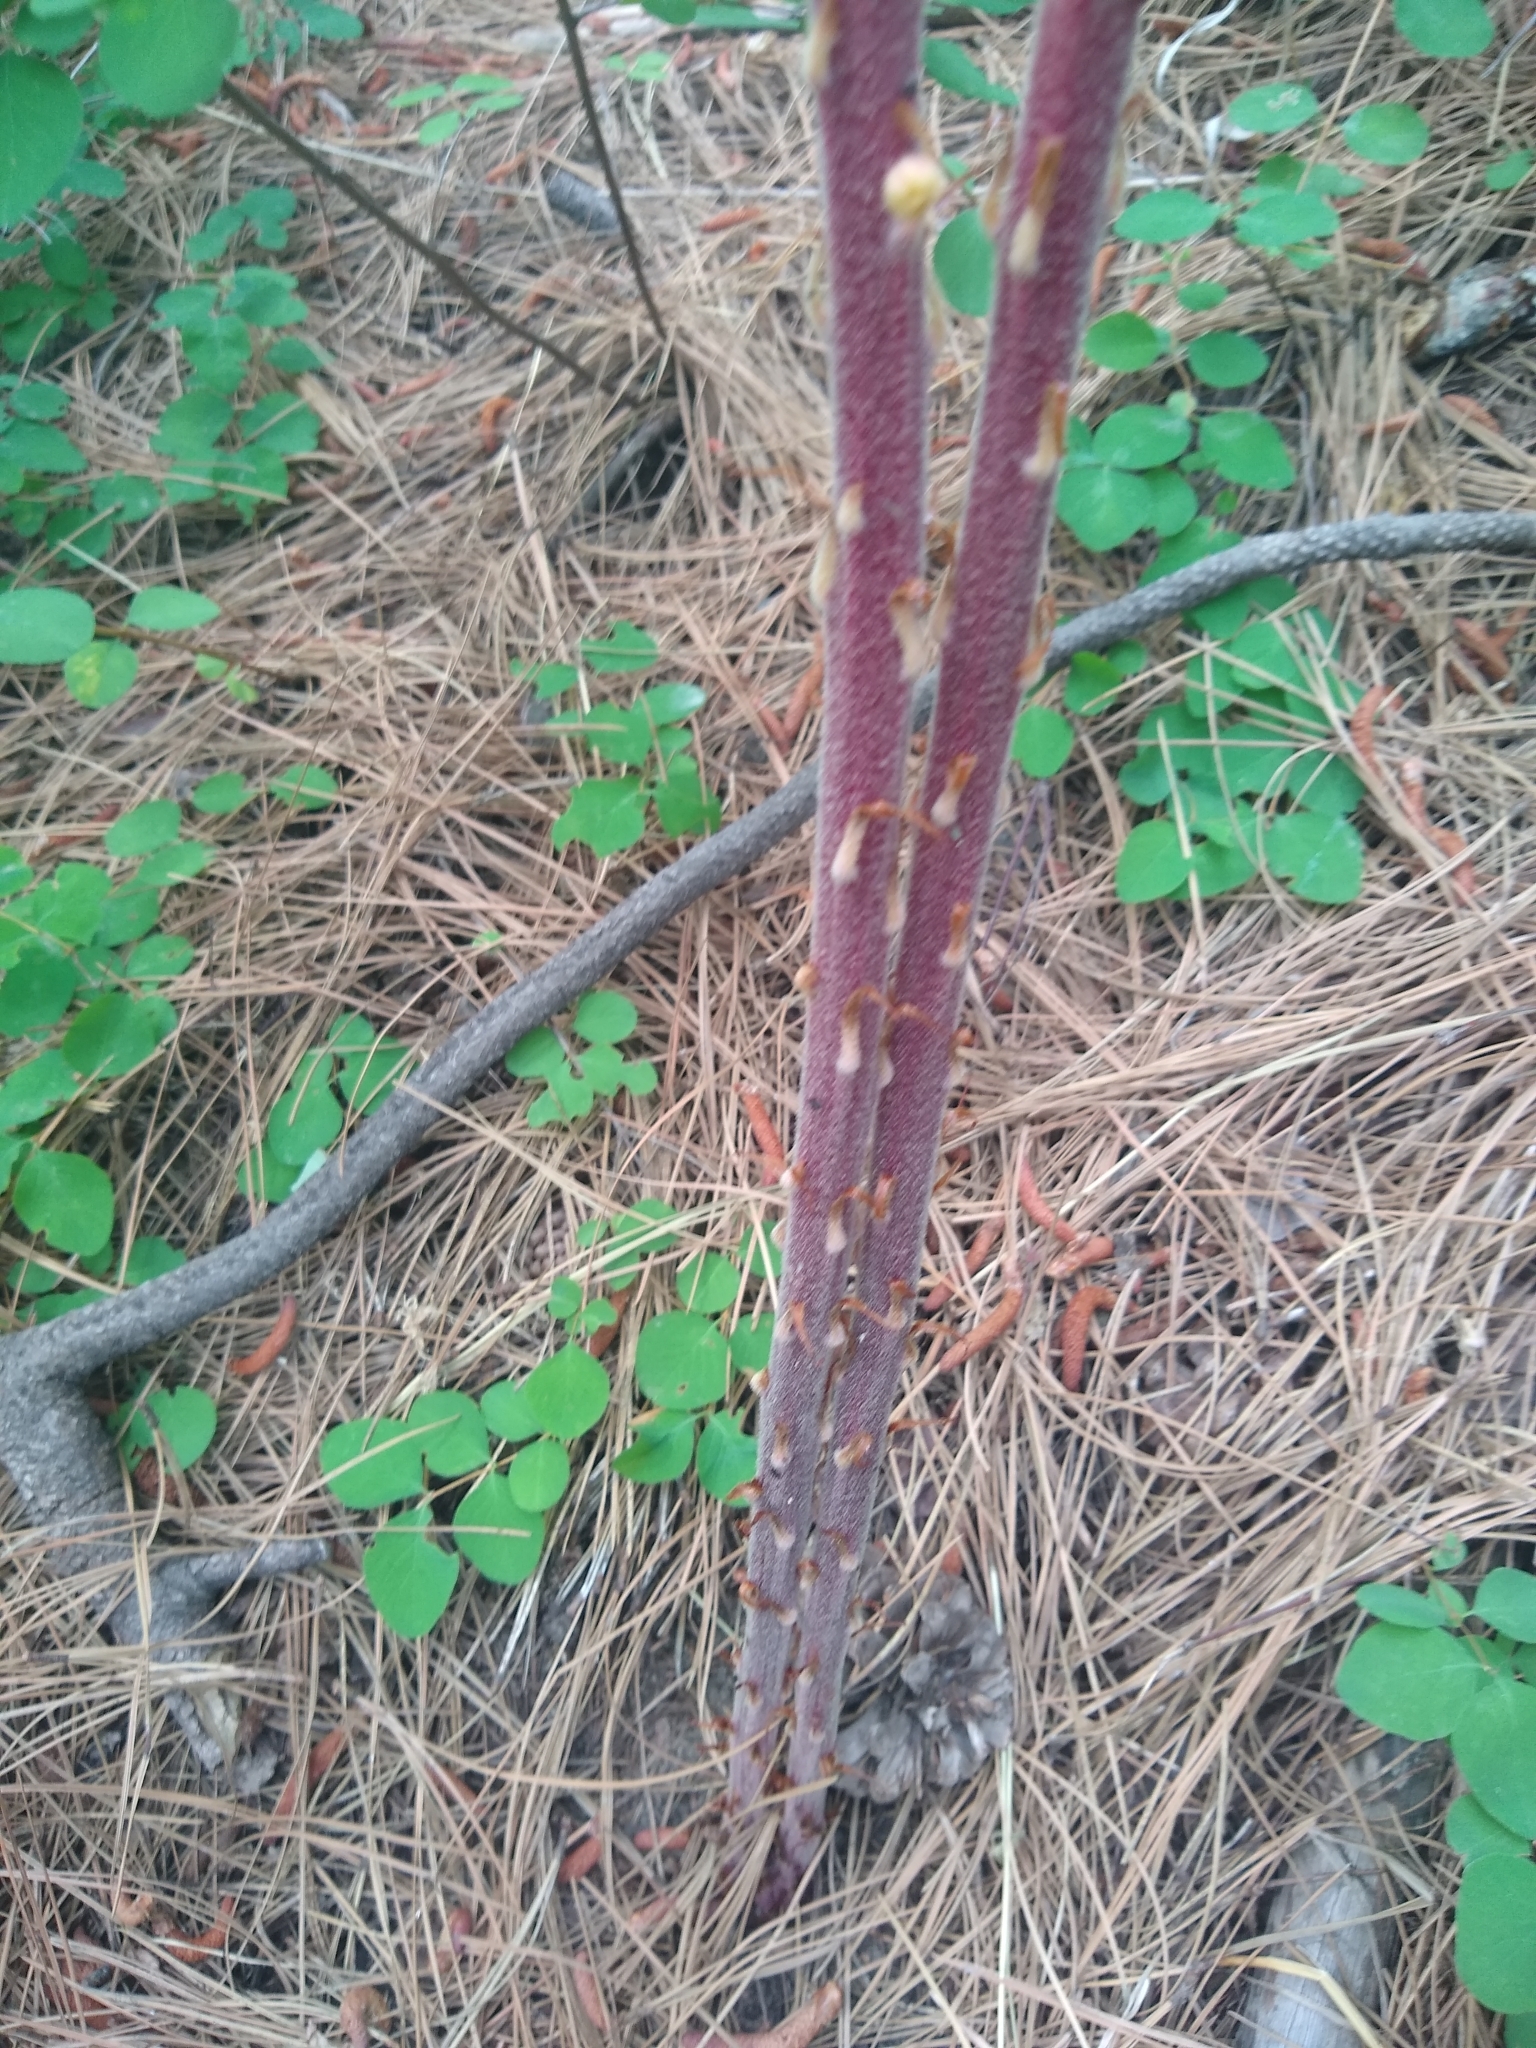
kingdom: Plantae
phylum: Tracheophyta
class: Magnoliopsida
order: Ericales
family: Ericaceae
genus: Pterospora
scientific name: Pterospora andromedea
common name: Giant bird's-nest
